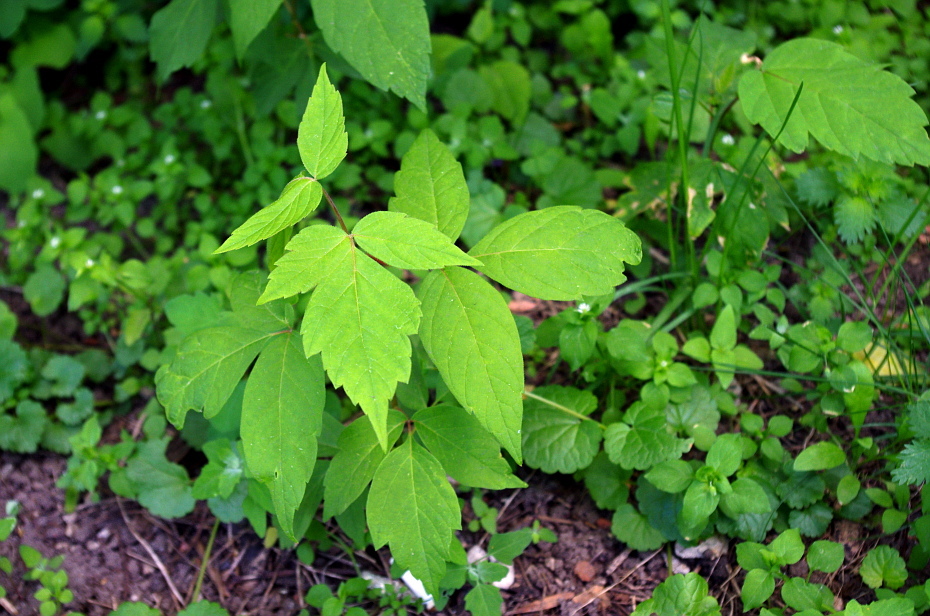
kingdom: Plantae
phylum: Tracheophyta
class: Magnoliopsida
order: Sapindales
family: Sapindaceae
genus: Acer
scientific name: Acer negundo
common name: Ashleaf maple
